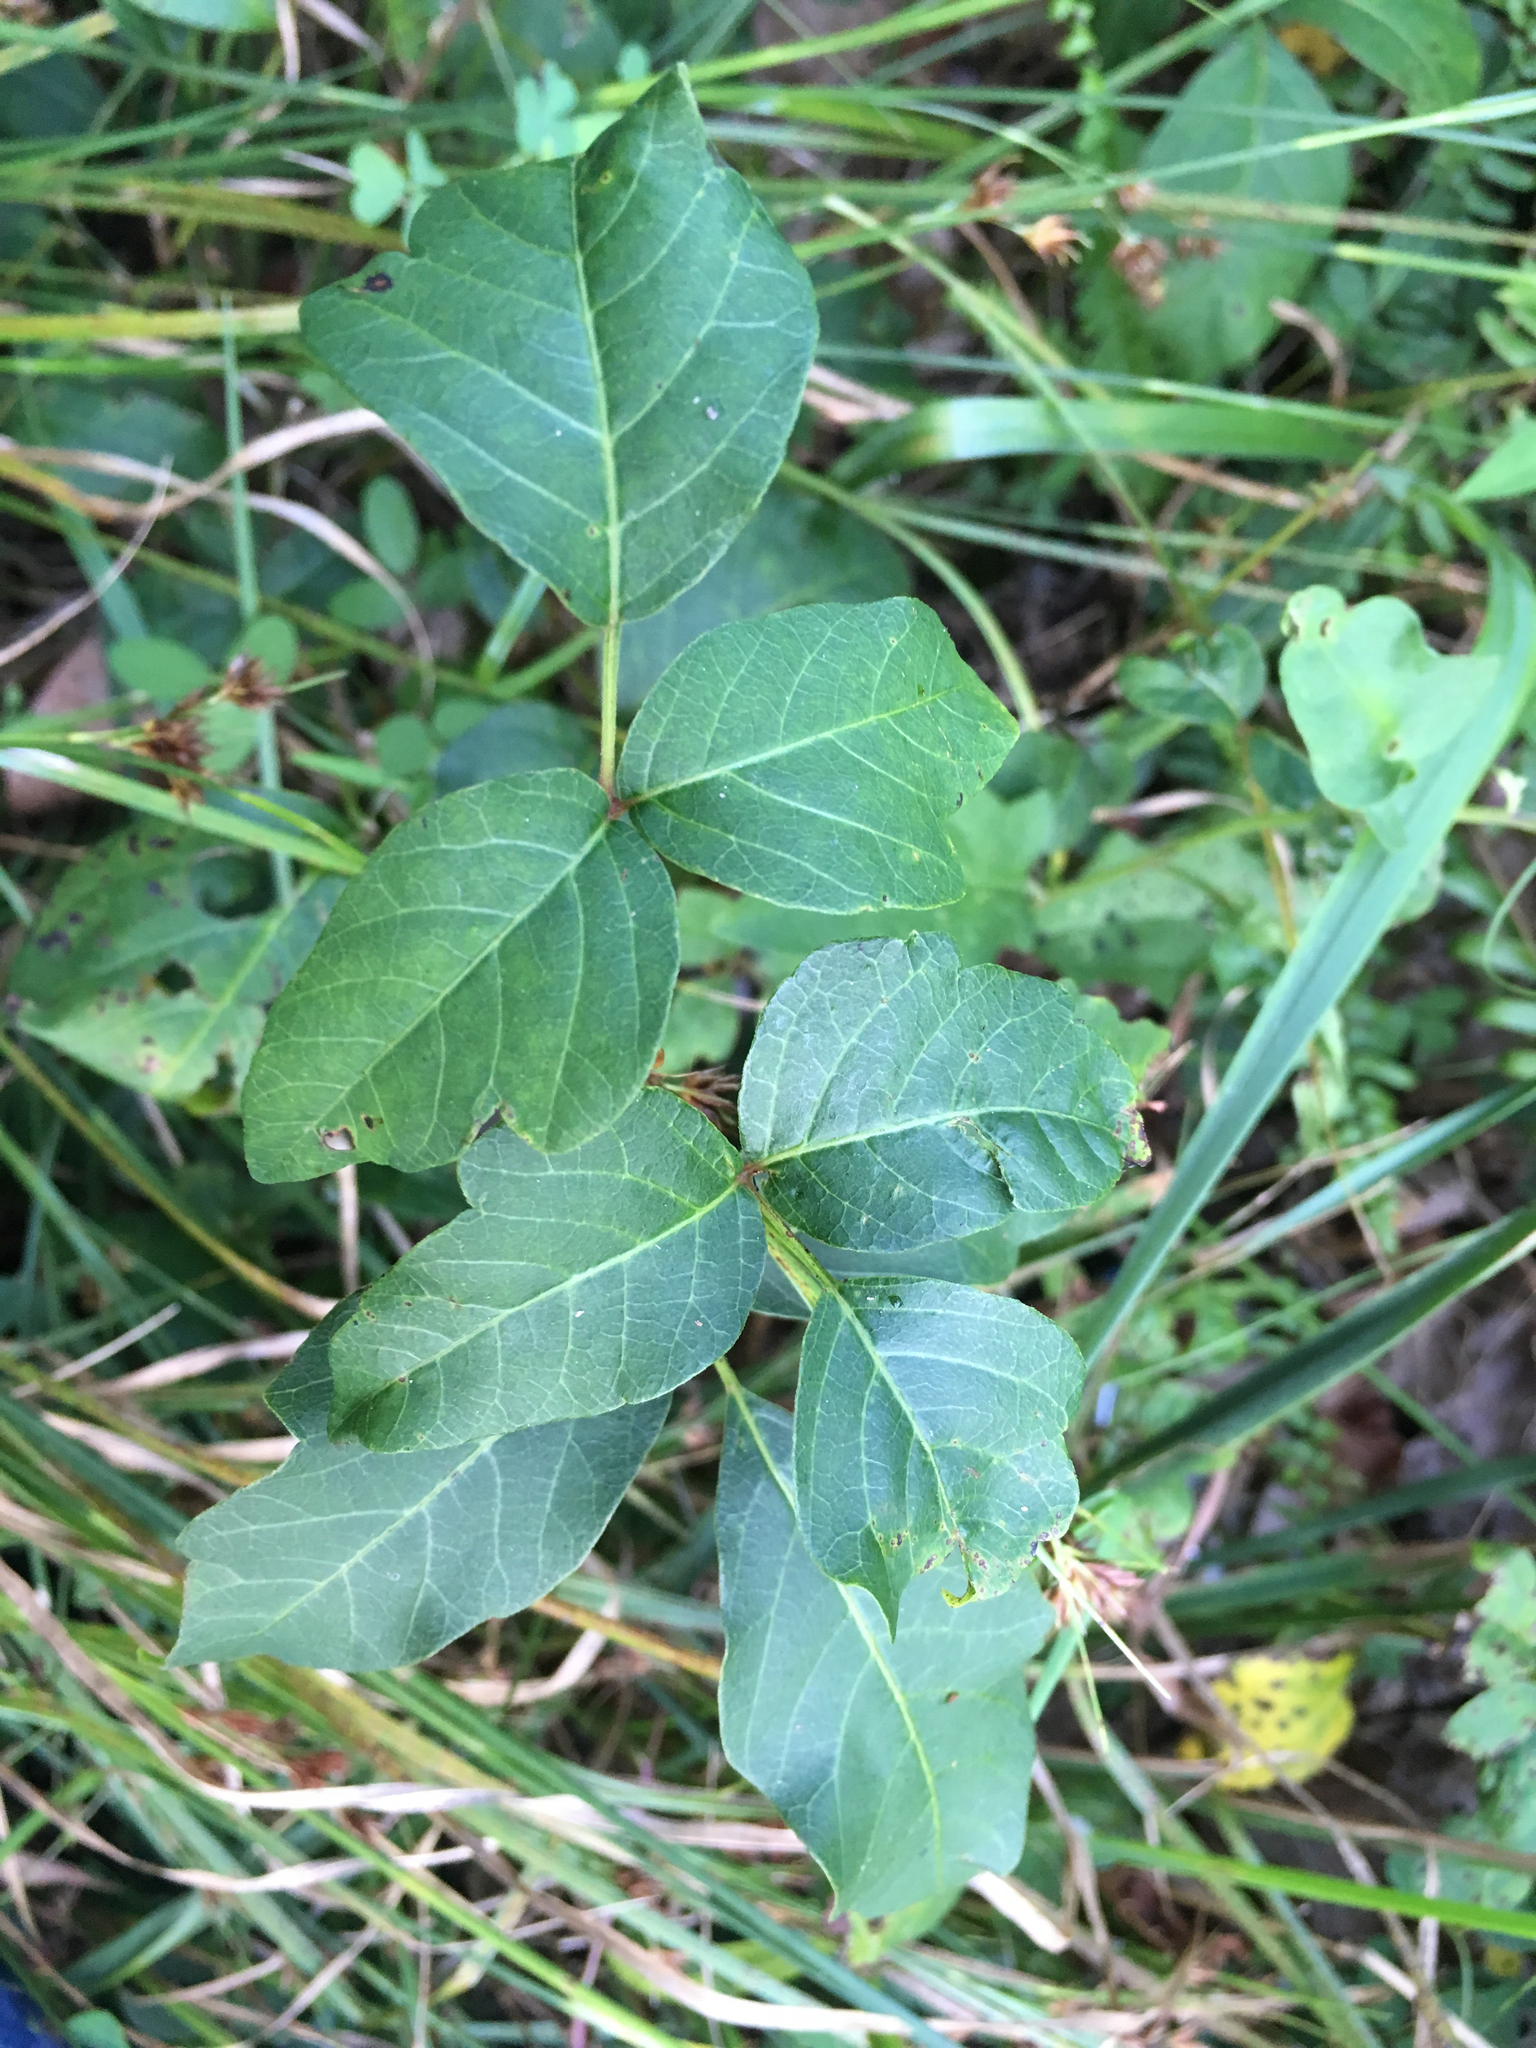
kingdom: Plantae
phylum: Tracheophyta
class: Magnoliopsida
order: Sapindales
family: Anacardiaceae
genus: Toxicodendron
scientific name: Toxicodendron radicans
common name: Poison ivy
